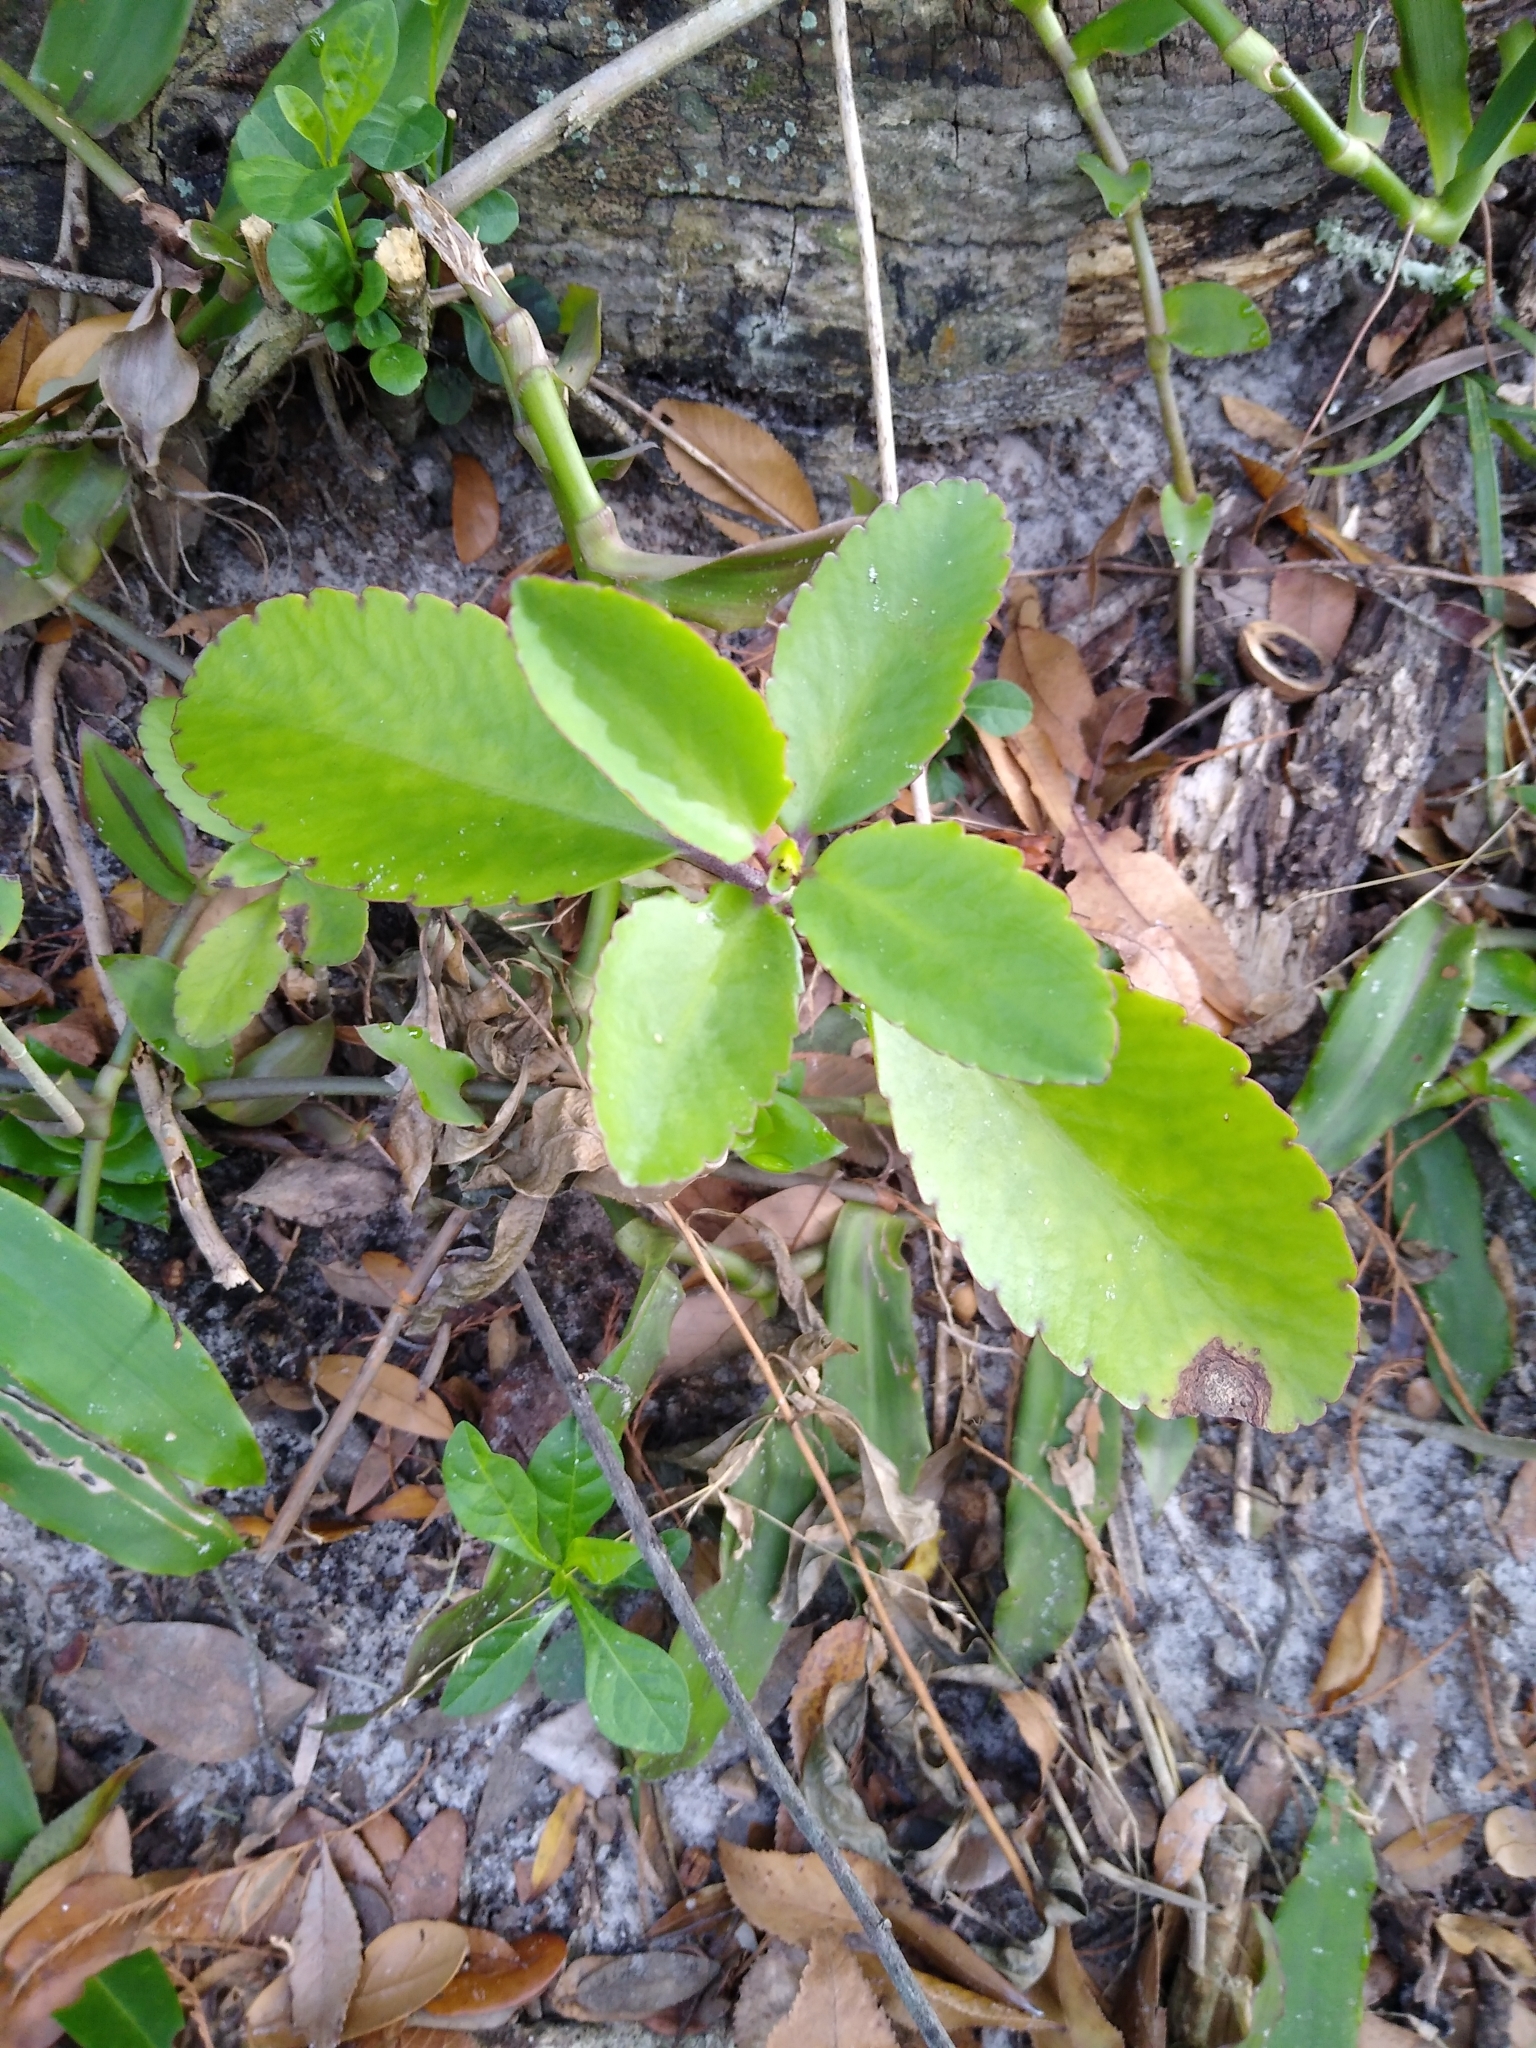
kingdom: Plantae
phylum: Tracheophyta
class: Magnoliopsida
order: Saxifragales
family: Crassulaceae
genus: Kalanchoe
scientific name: Kalanchoe pinnata
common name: Cathedral bells
